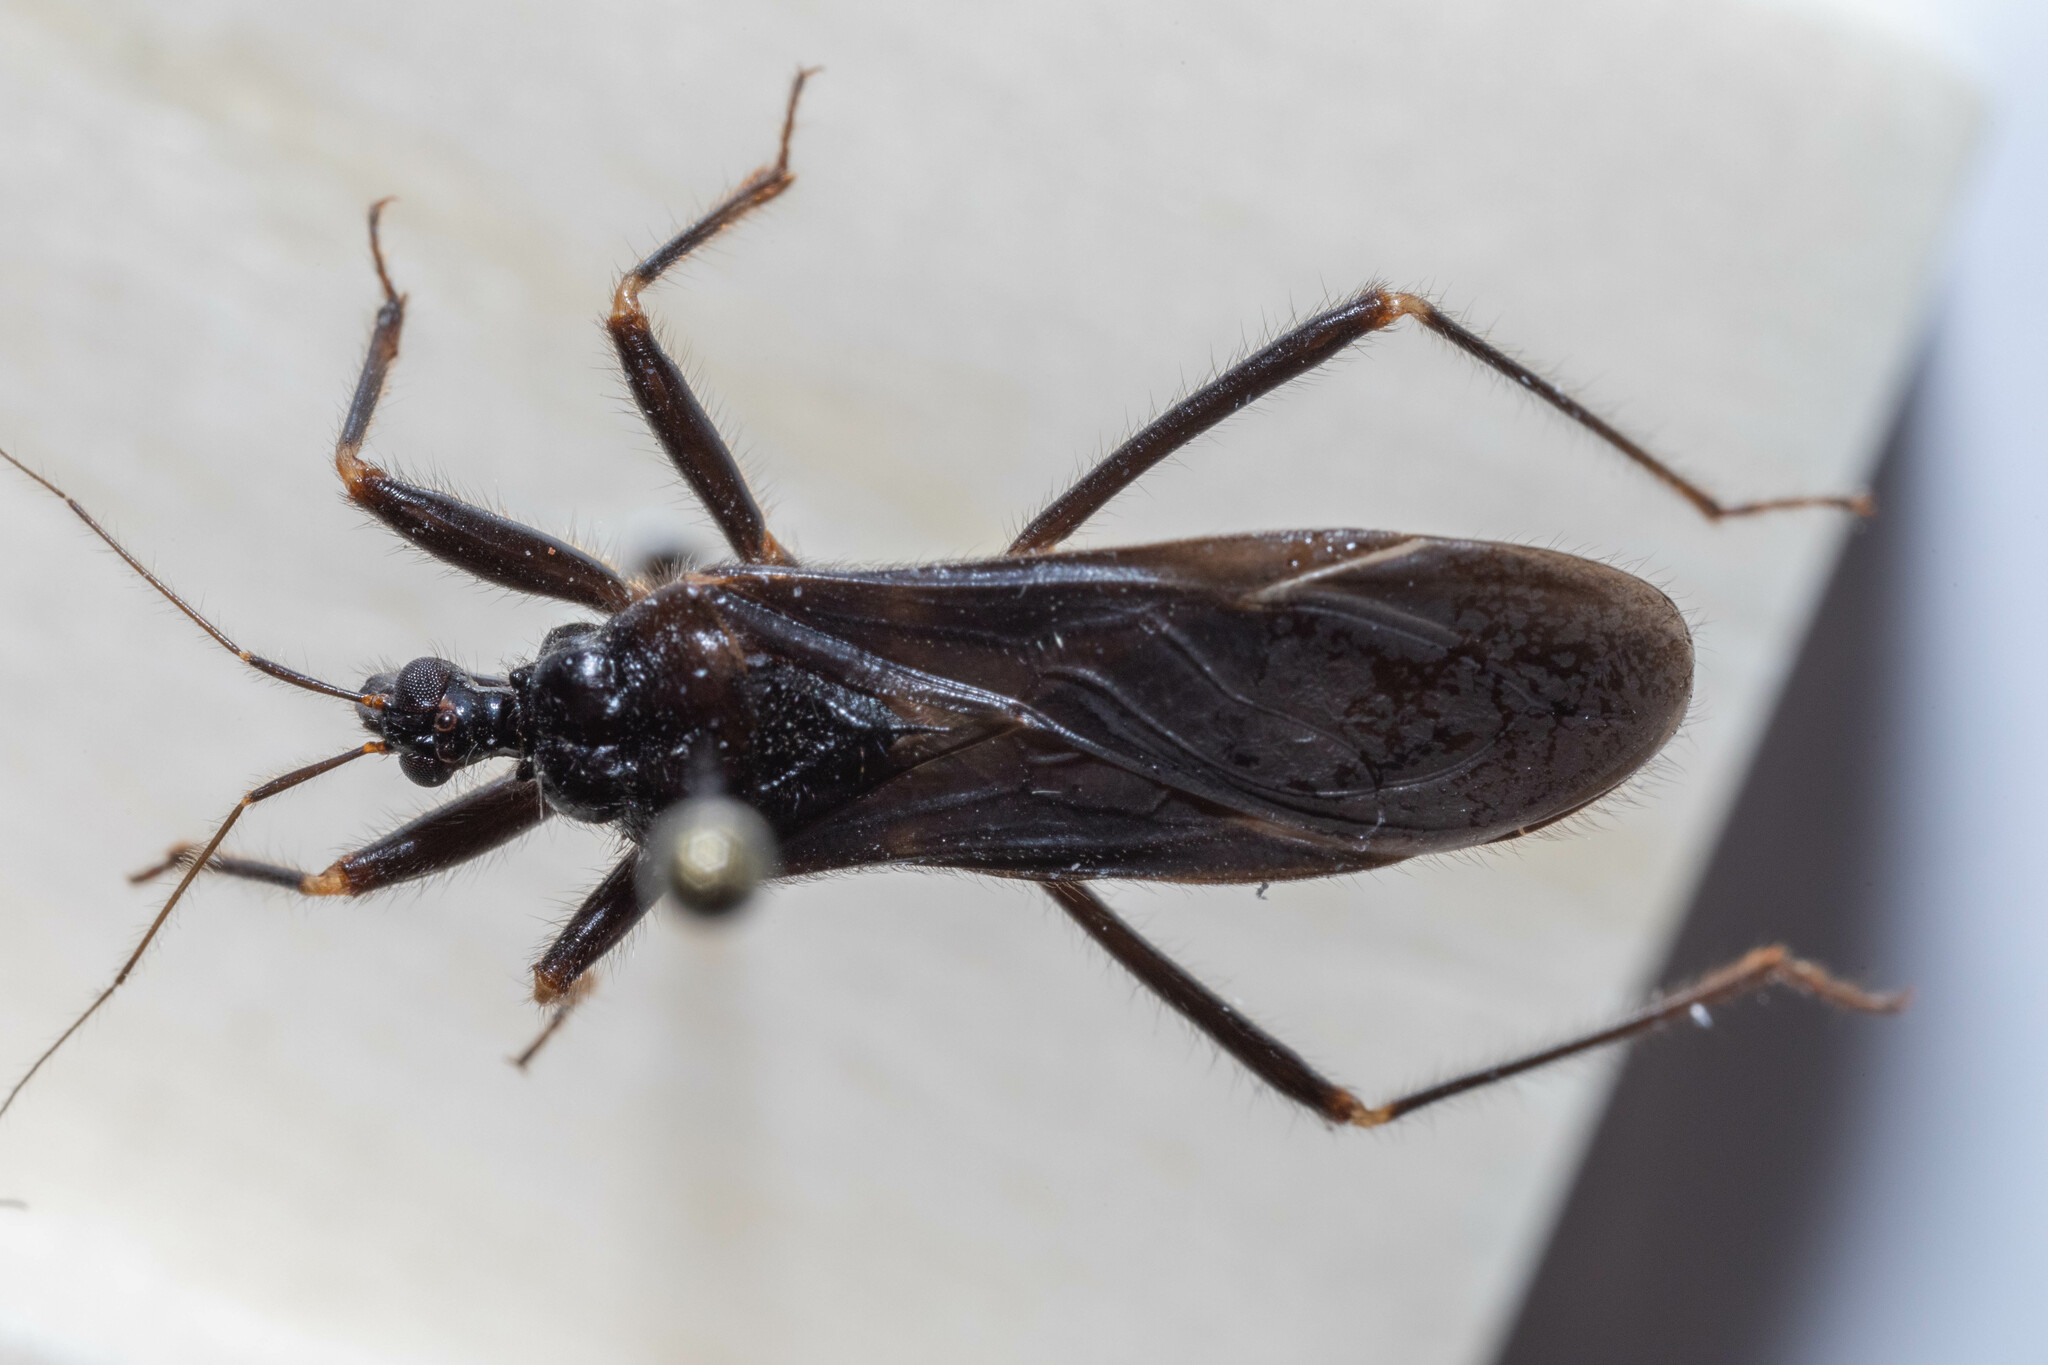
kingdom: Animalia
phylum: Arthropoda
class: Insecta
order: Hemiptera
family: Reduviidae
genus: Reduvius
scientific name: Reduvius personatus
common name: Masked hunter
